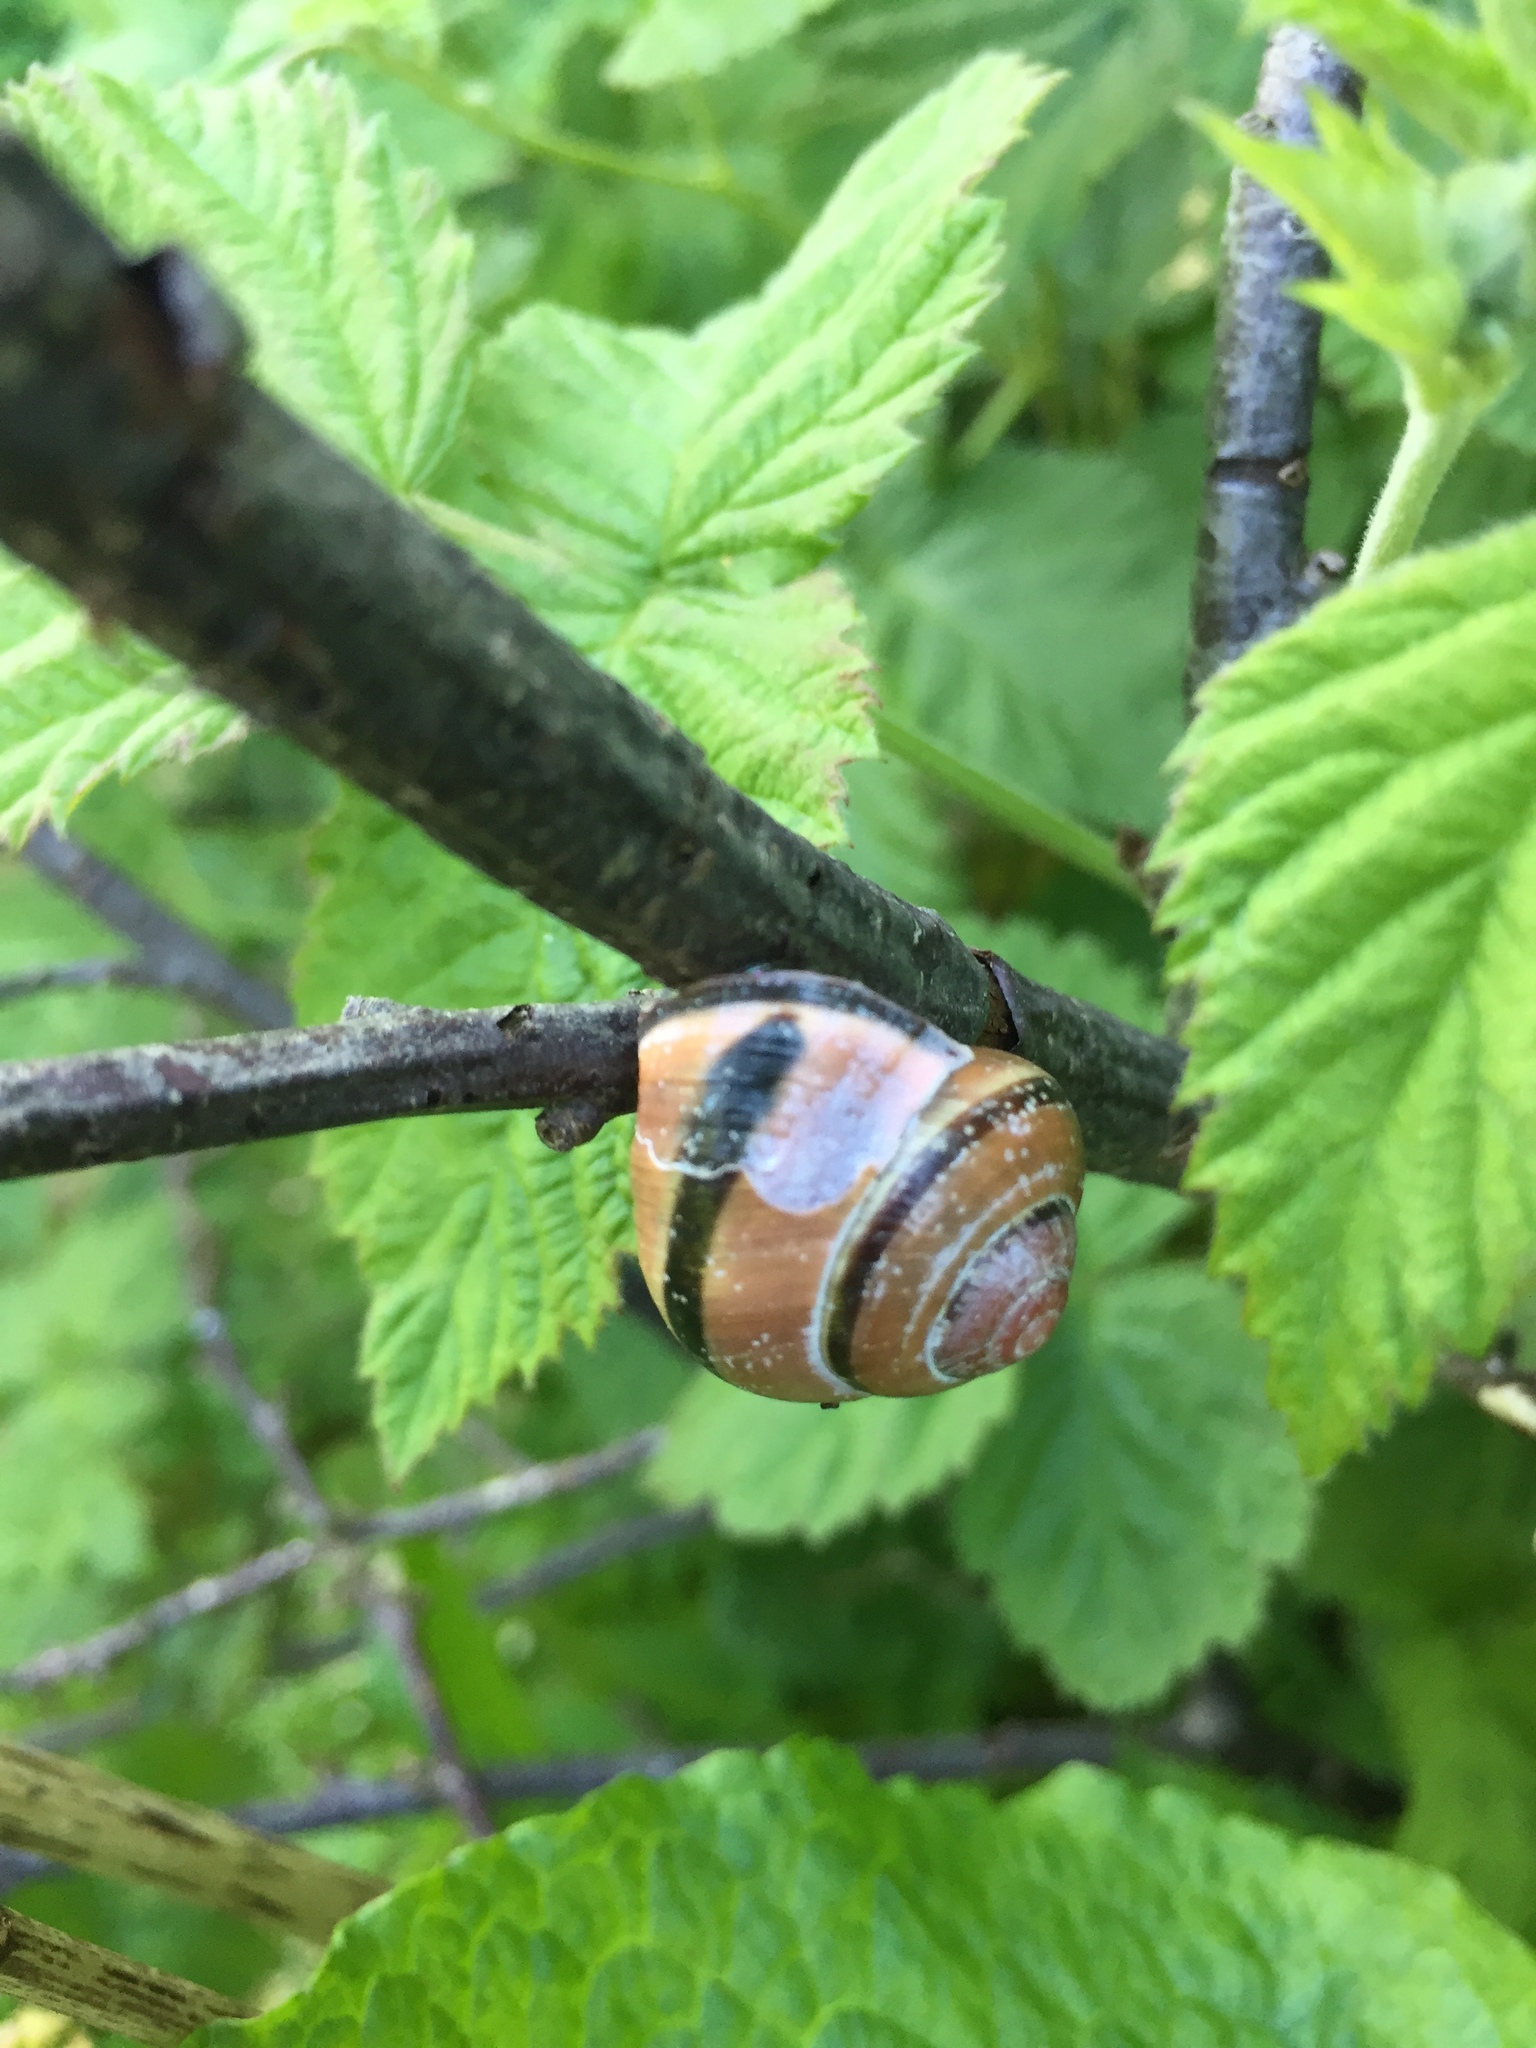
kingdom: Animalia
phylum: Mollusca
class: Gastropoda
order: Stylommatophora
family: Helicidae
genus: Cepaea
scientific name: Cepaea nemoralis
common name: Grovesnail
